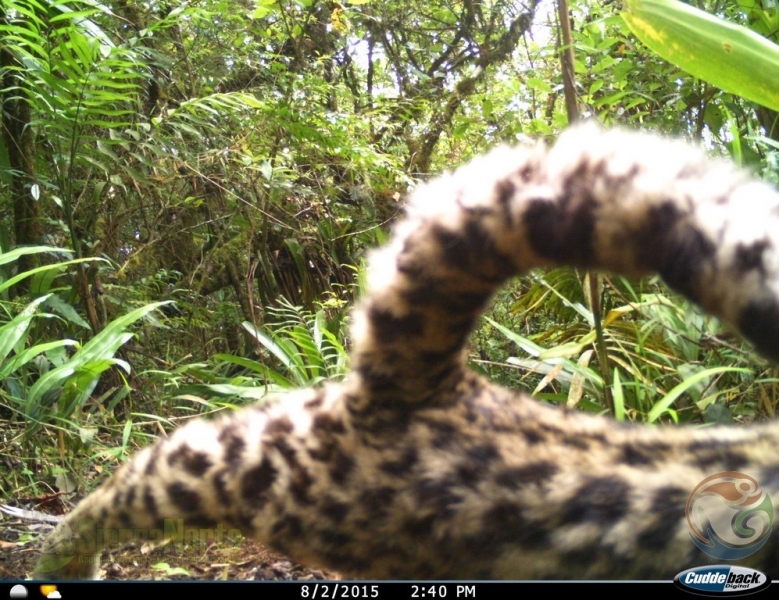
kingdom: Animalia
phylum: Chordata
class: Mammalia
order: Carnivora
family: Felidae
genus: Leopardus
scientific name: Leopardus wiedii
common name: Margay
